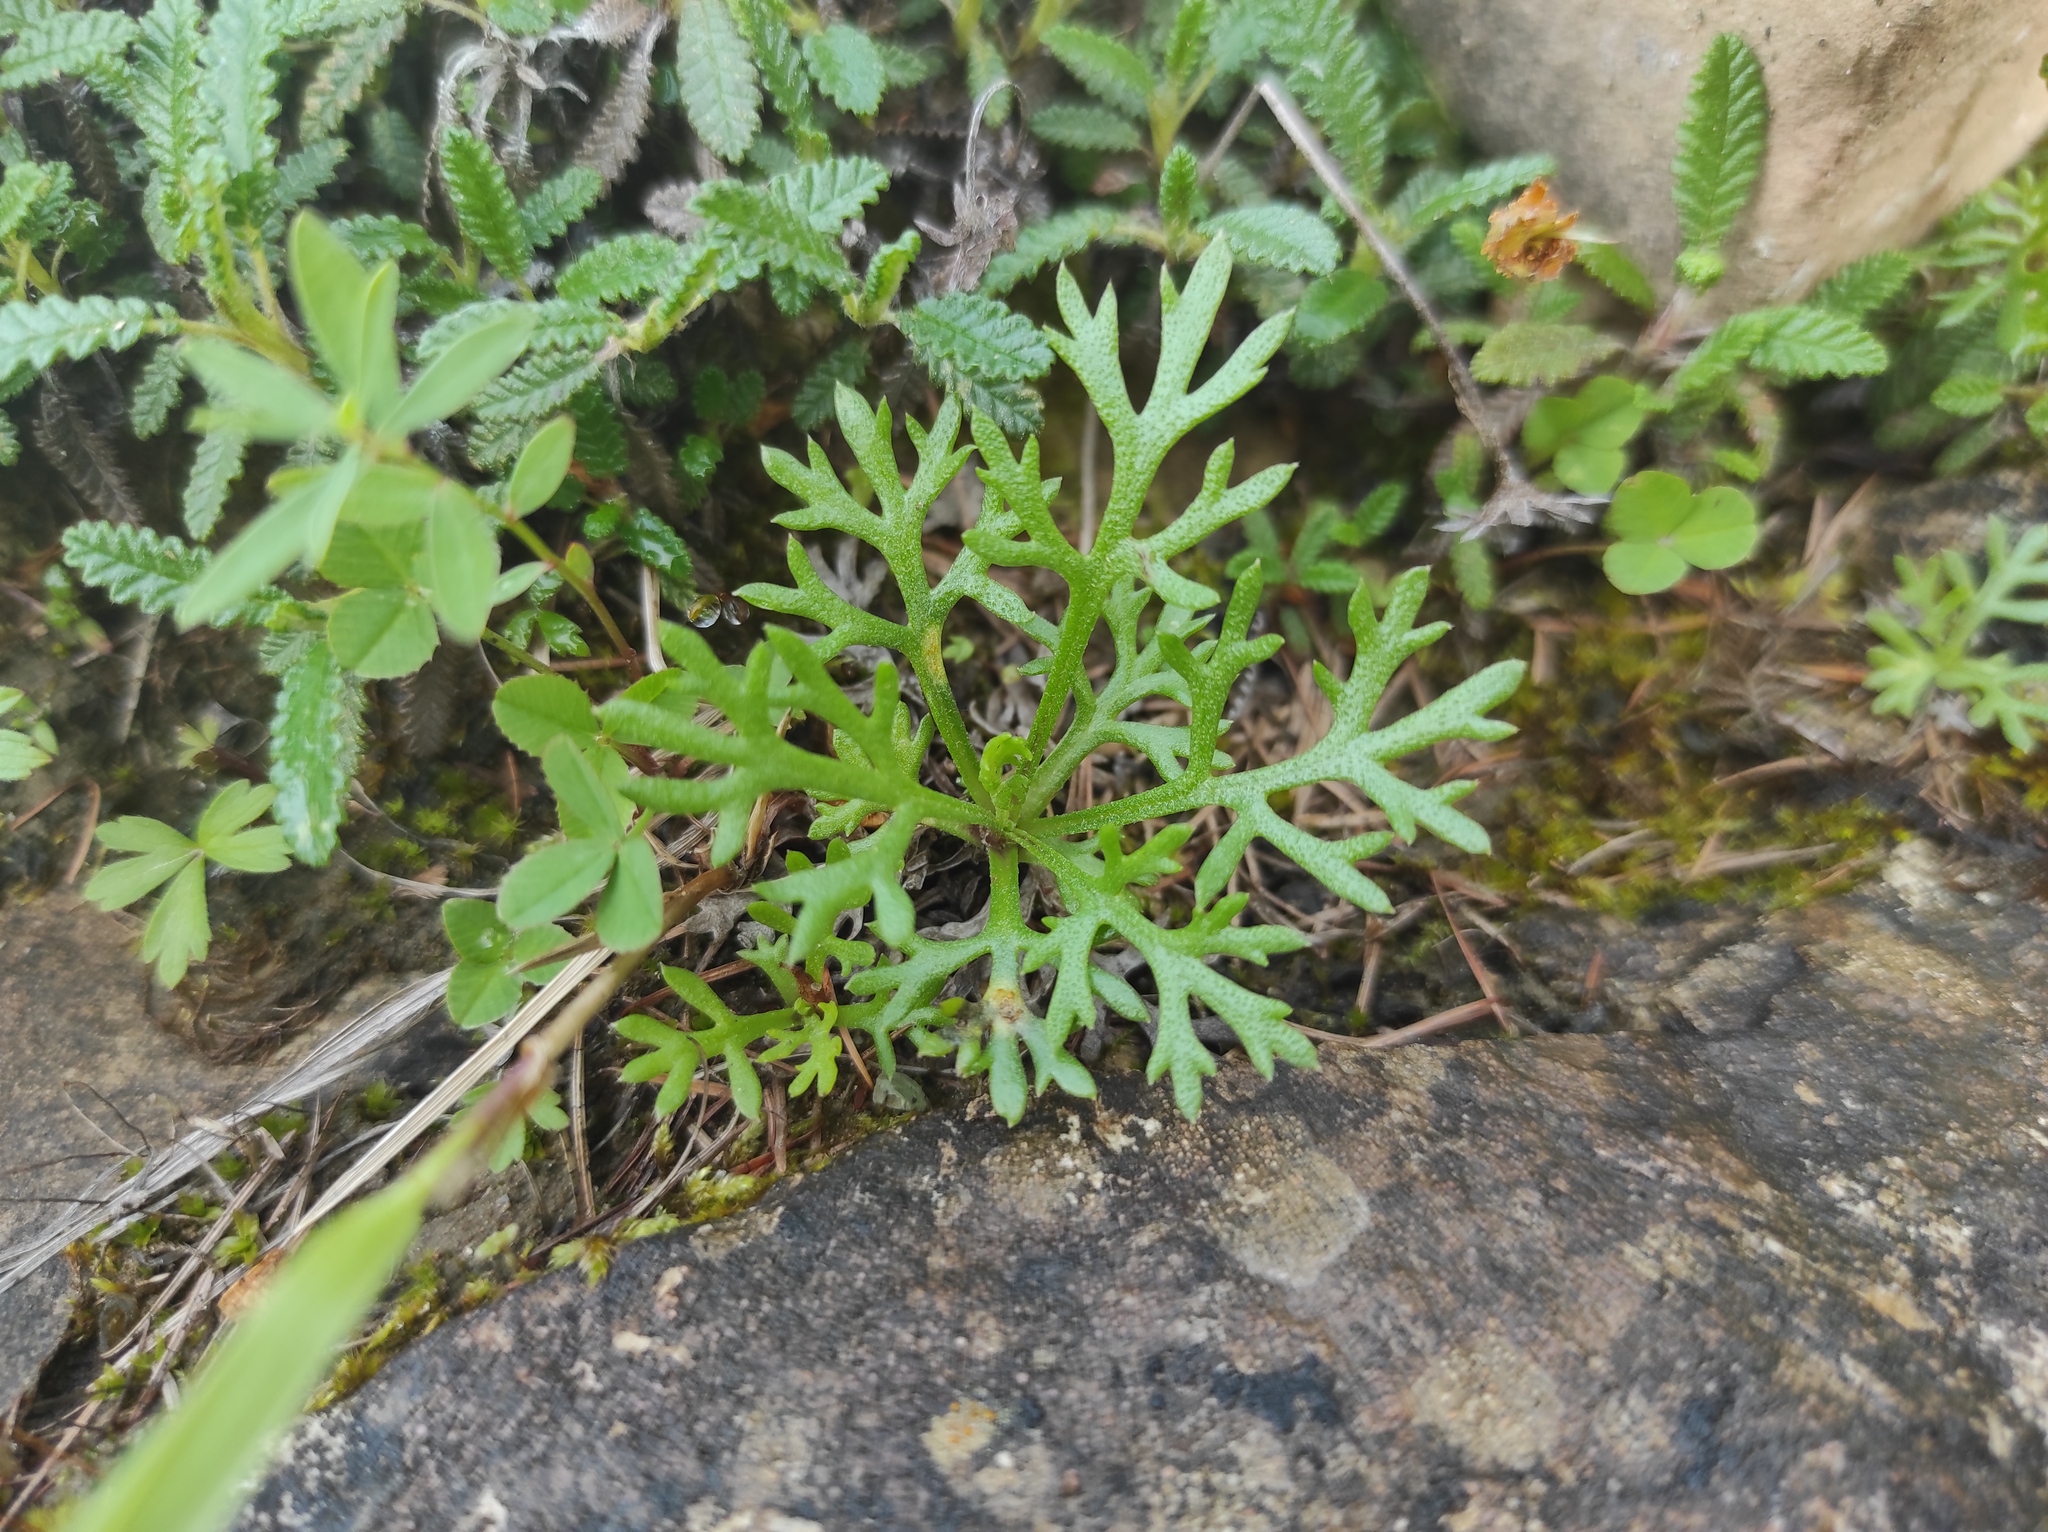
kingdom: Plantae
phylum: Tracheophyta
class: Magnoliopsida
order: Asterales
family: Asteraceae
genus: Chrysanthemum
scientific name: Chrysanthemum zawadzkii
